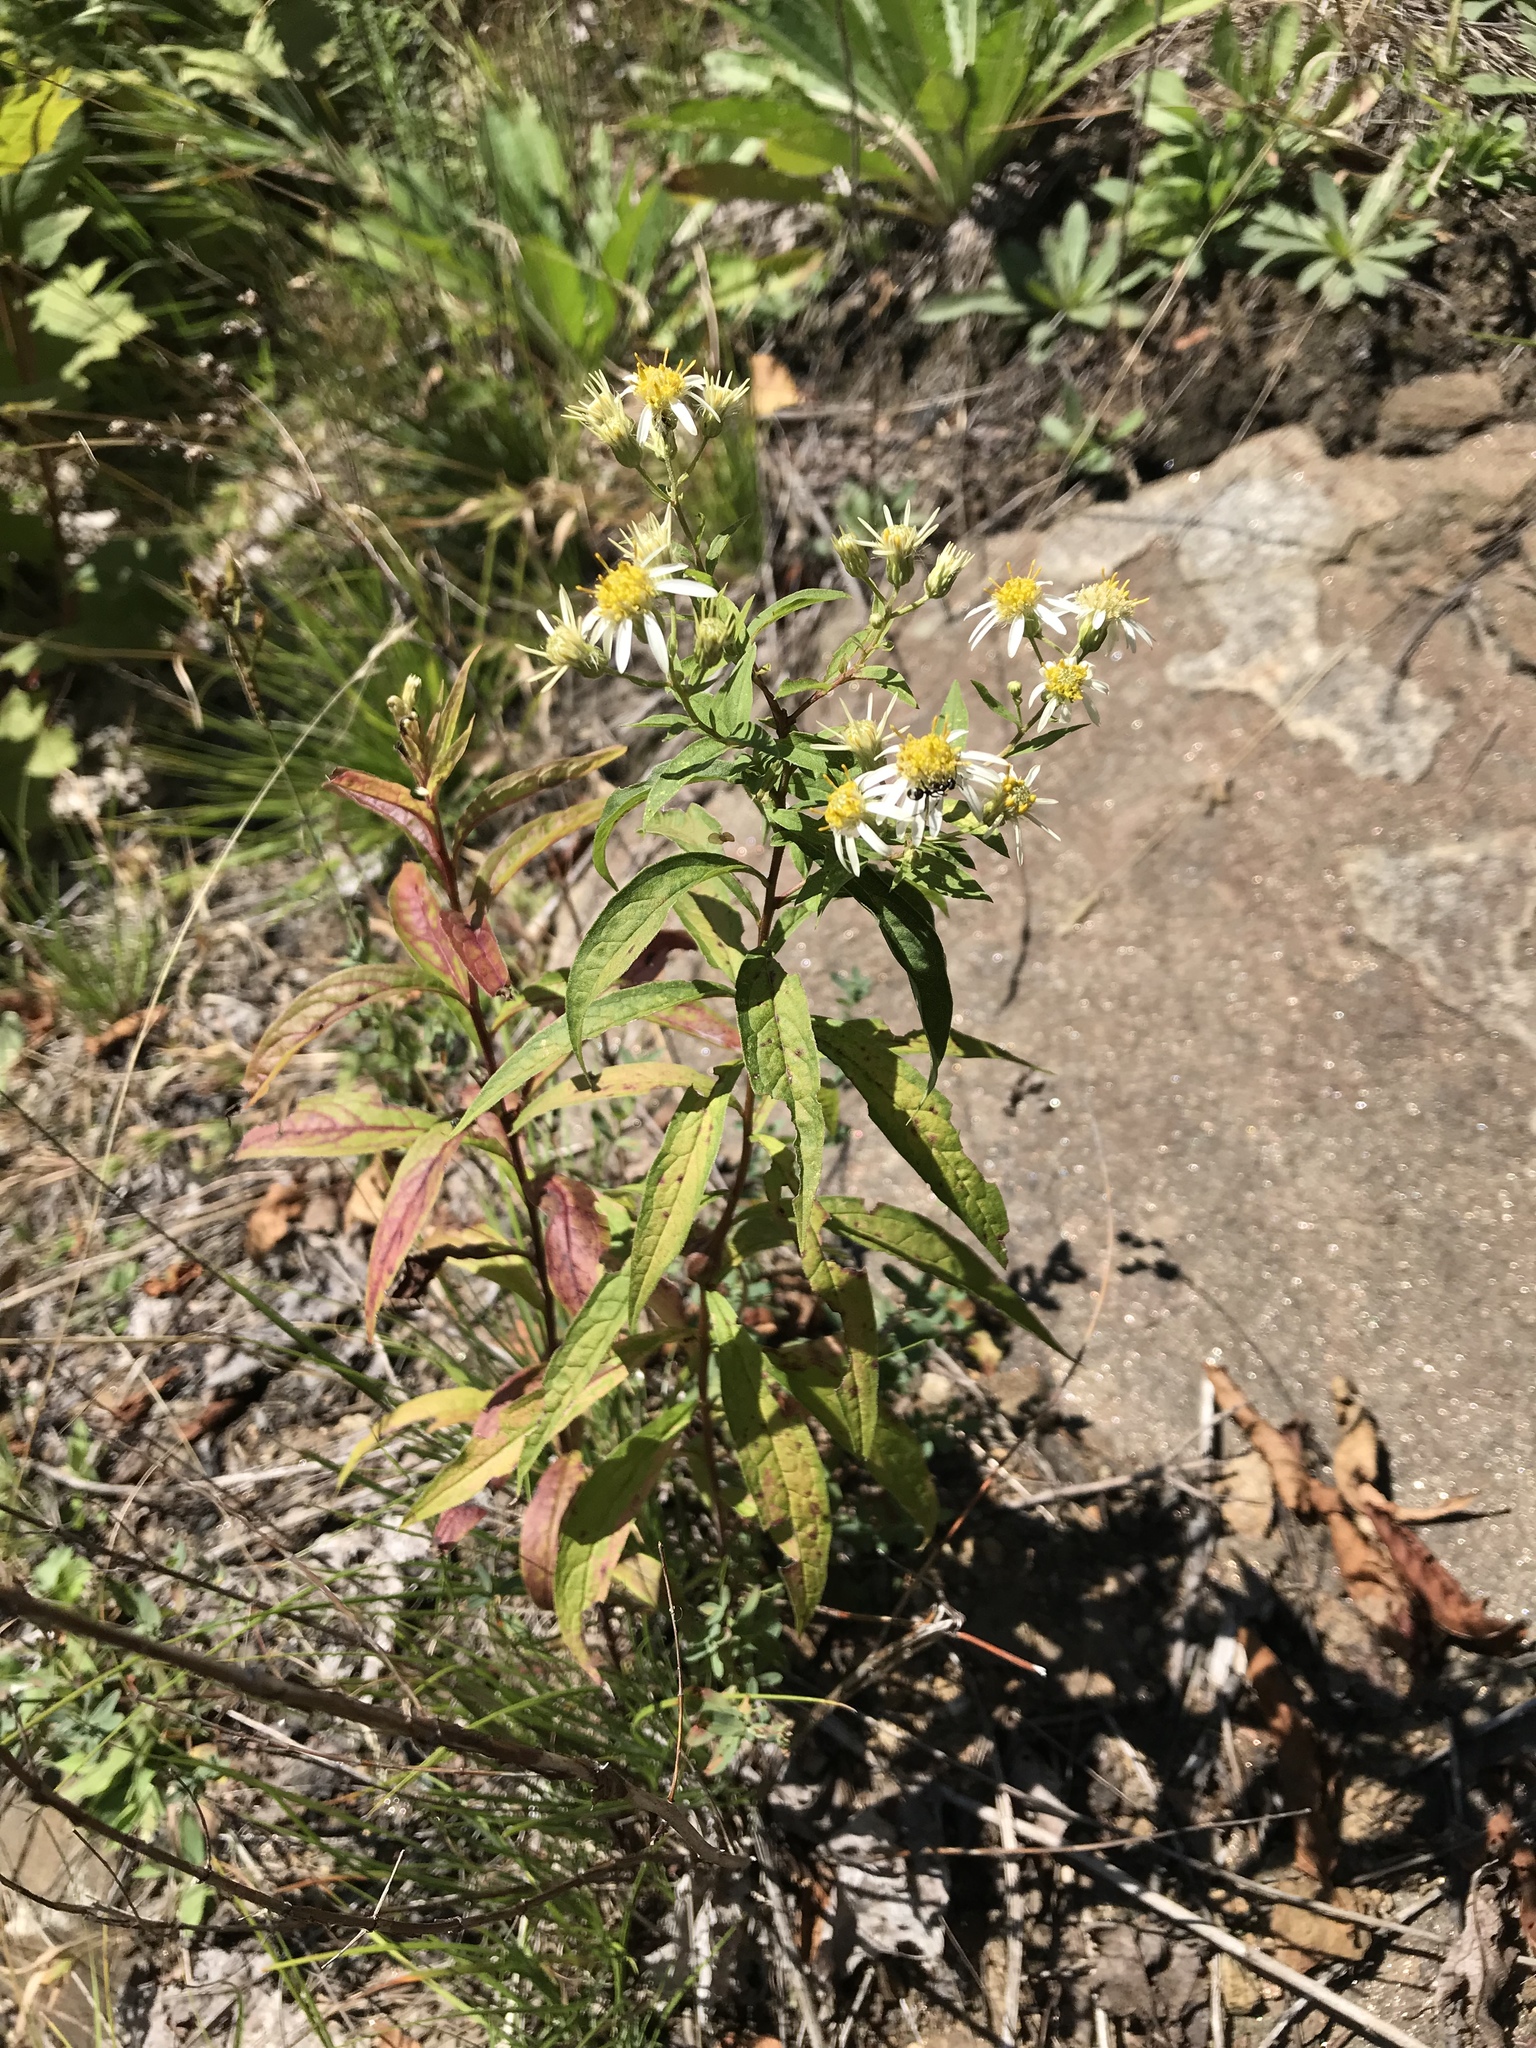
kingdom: Plantae
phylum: Tracheophyta
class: Magnoliopsida
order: Asterales
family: Asteraceae
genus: Doellingeria
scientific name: Doellingeria umbellata
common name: Flat-top white aster
